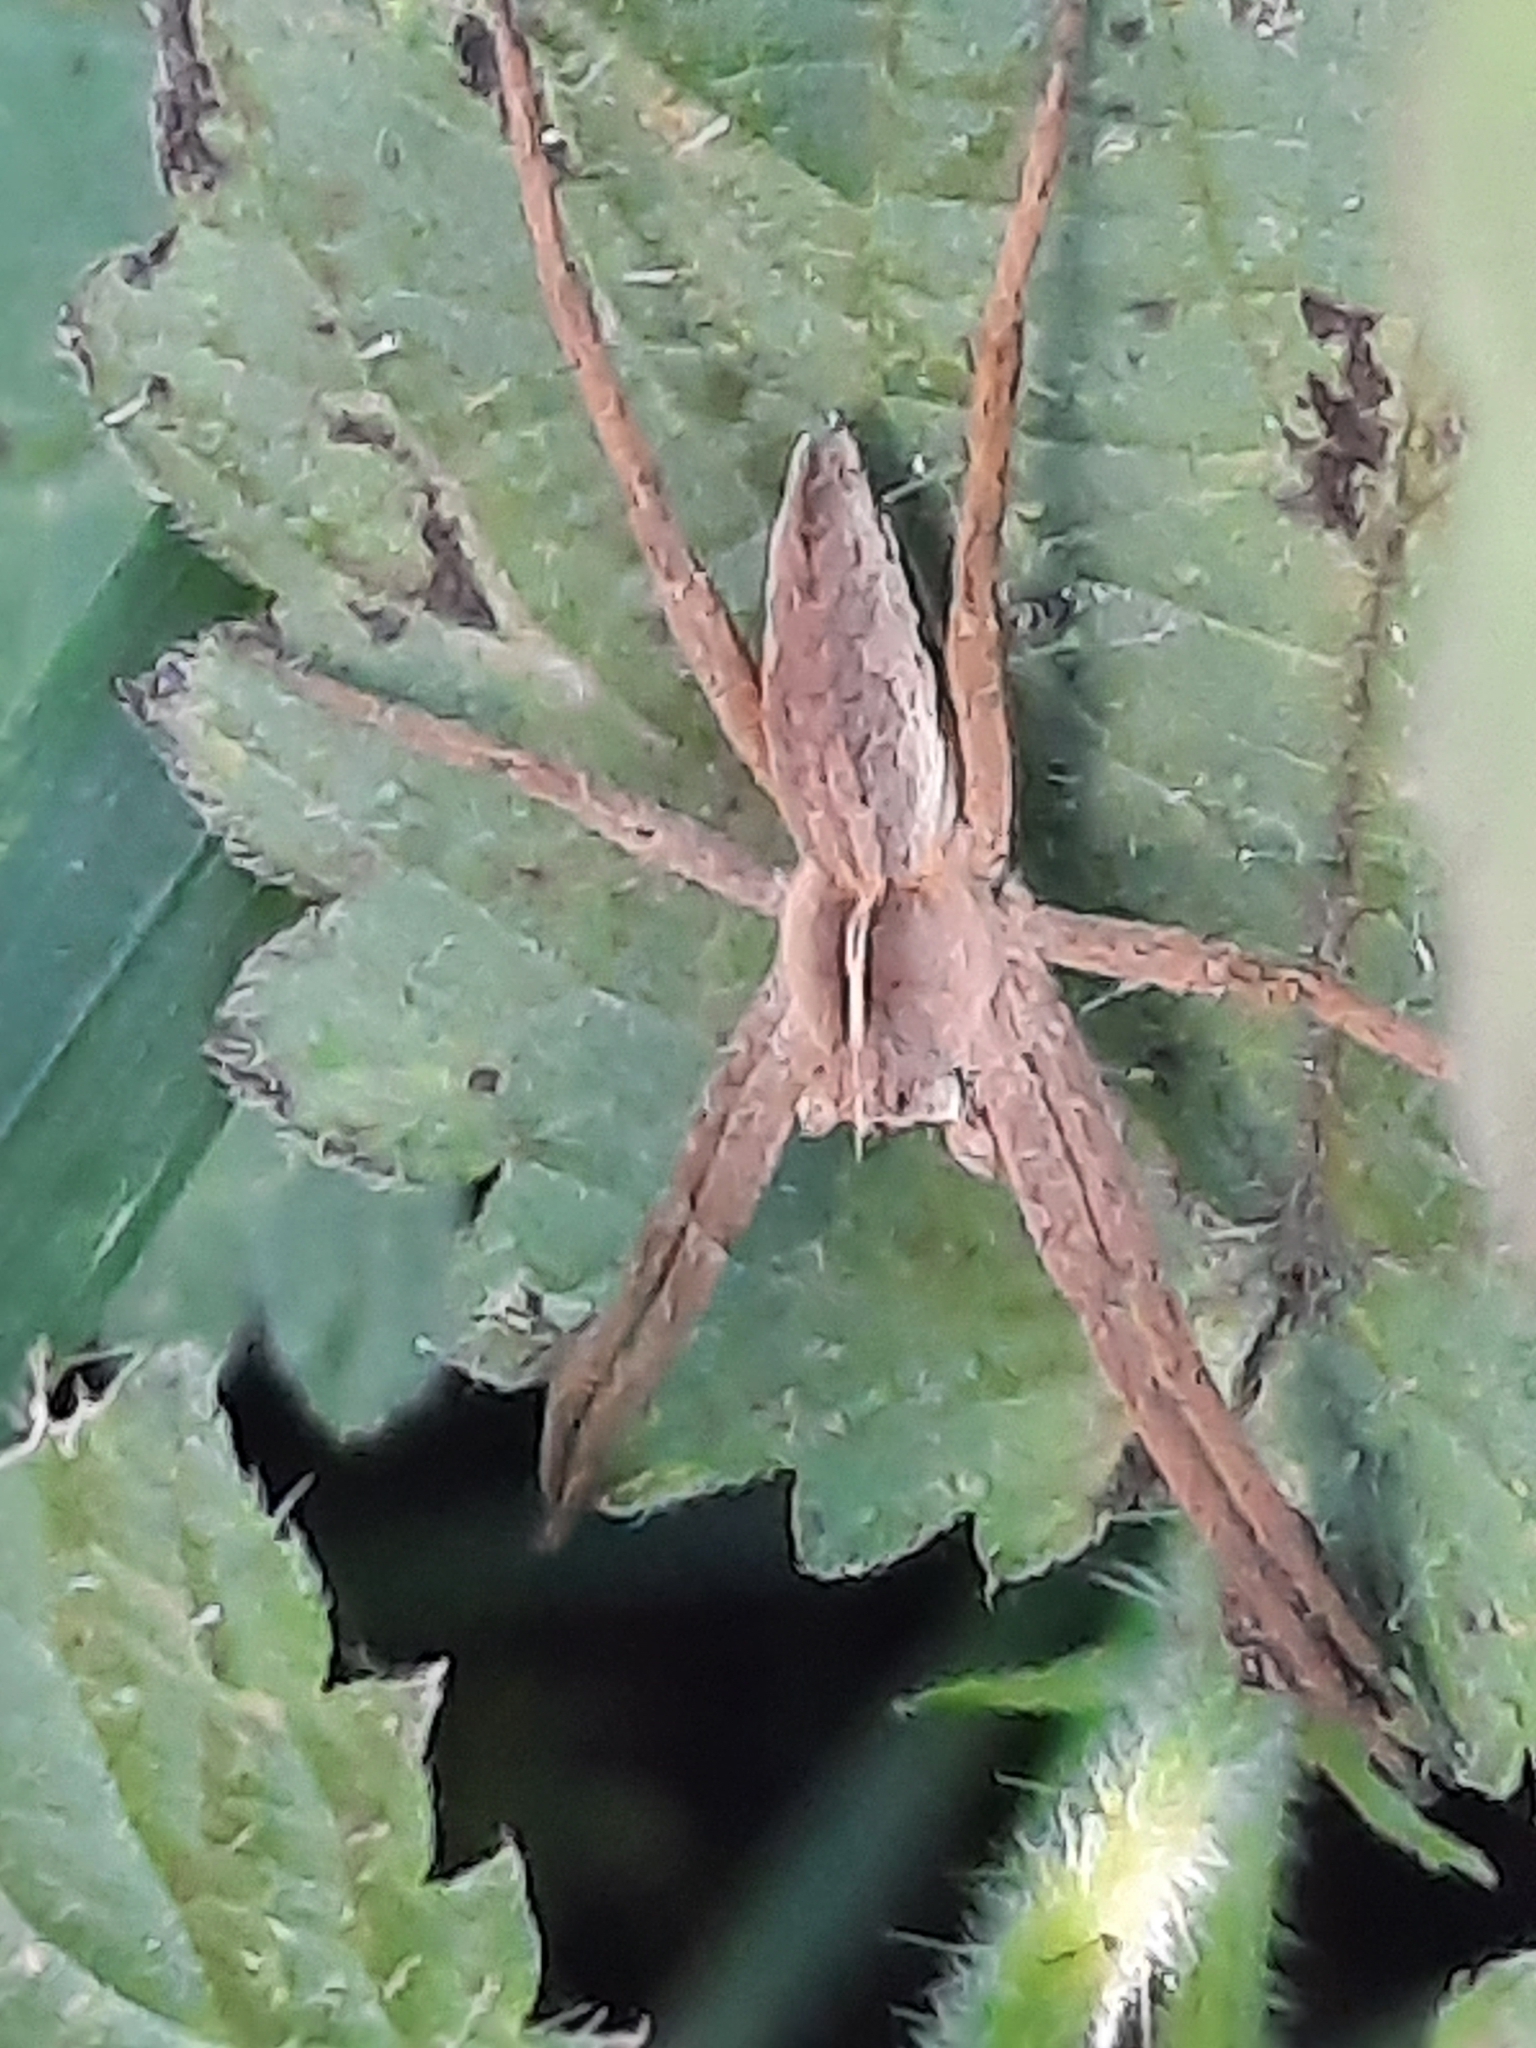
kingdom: Animalia
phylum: Arthropoda
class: Arachnida
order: Araneae
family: Pisauridae
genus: Pisaura
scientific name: Pisaura mirabilis
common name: Tent spider
